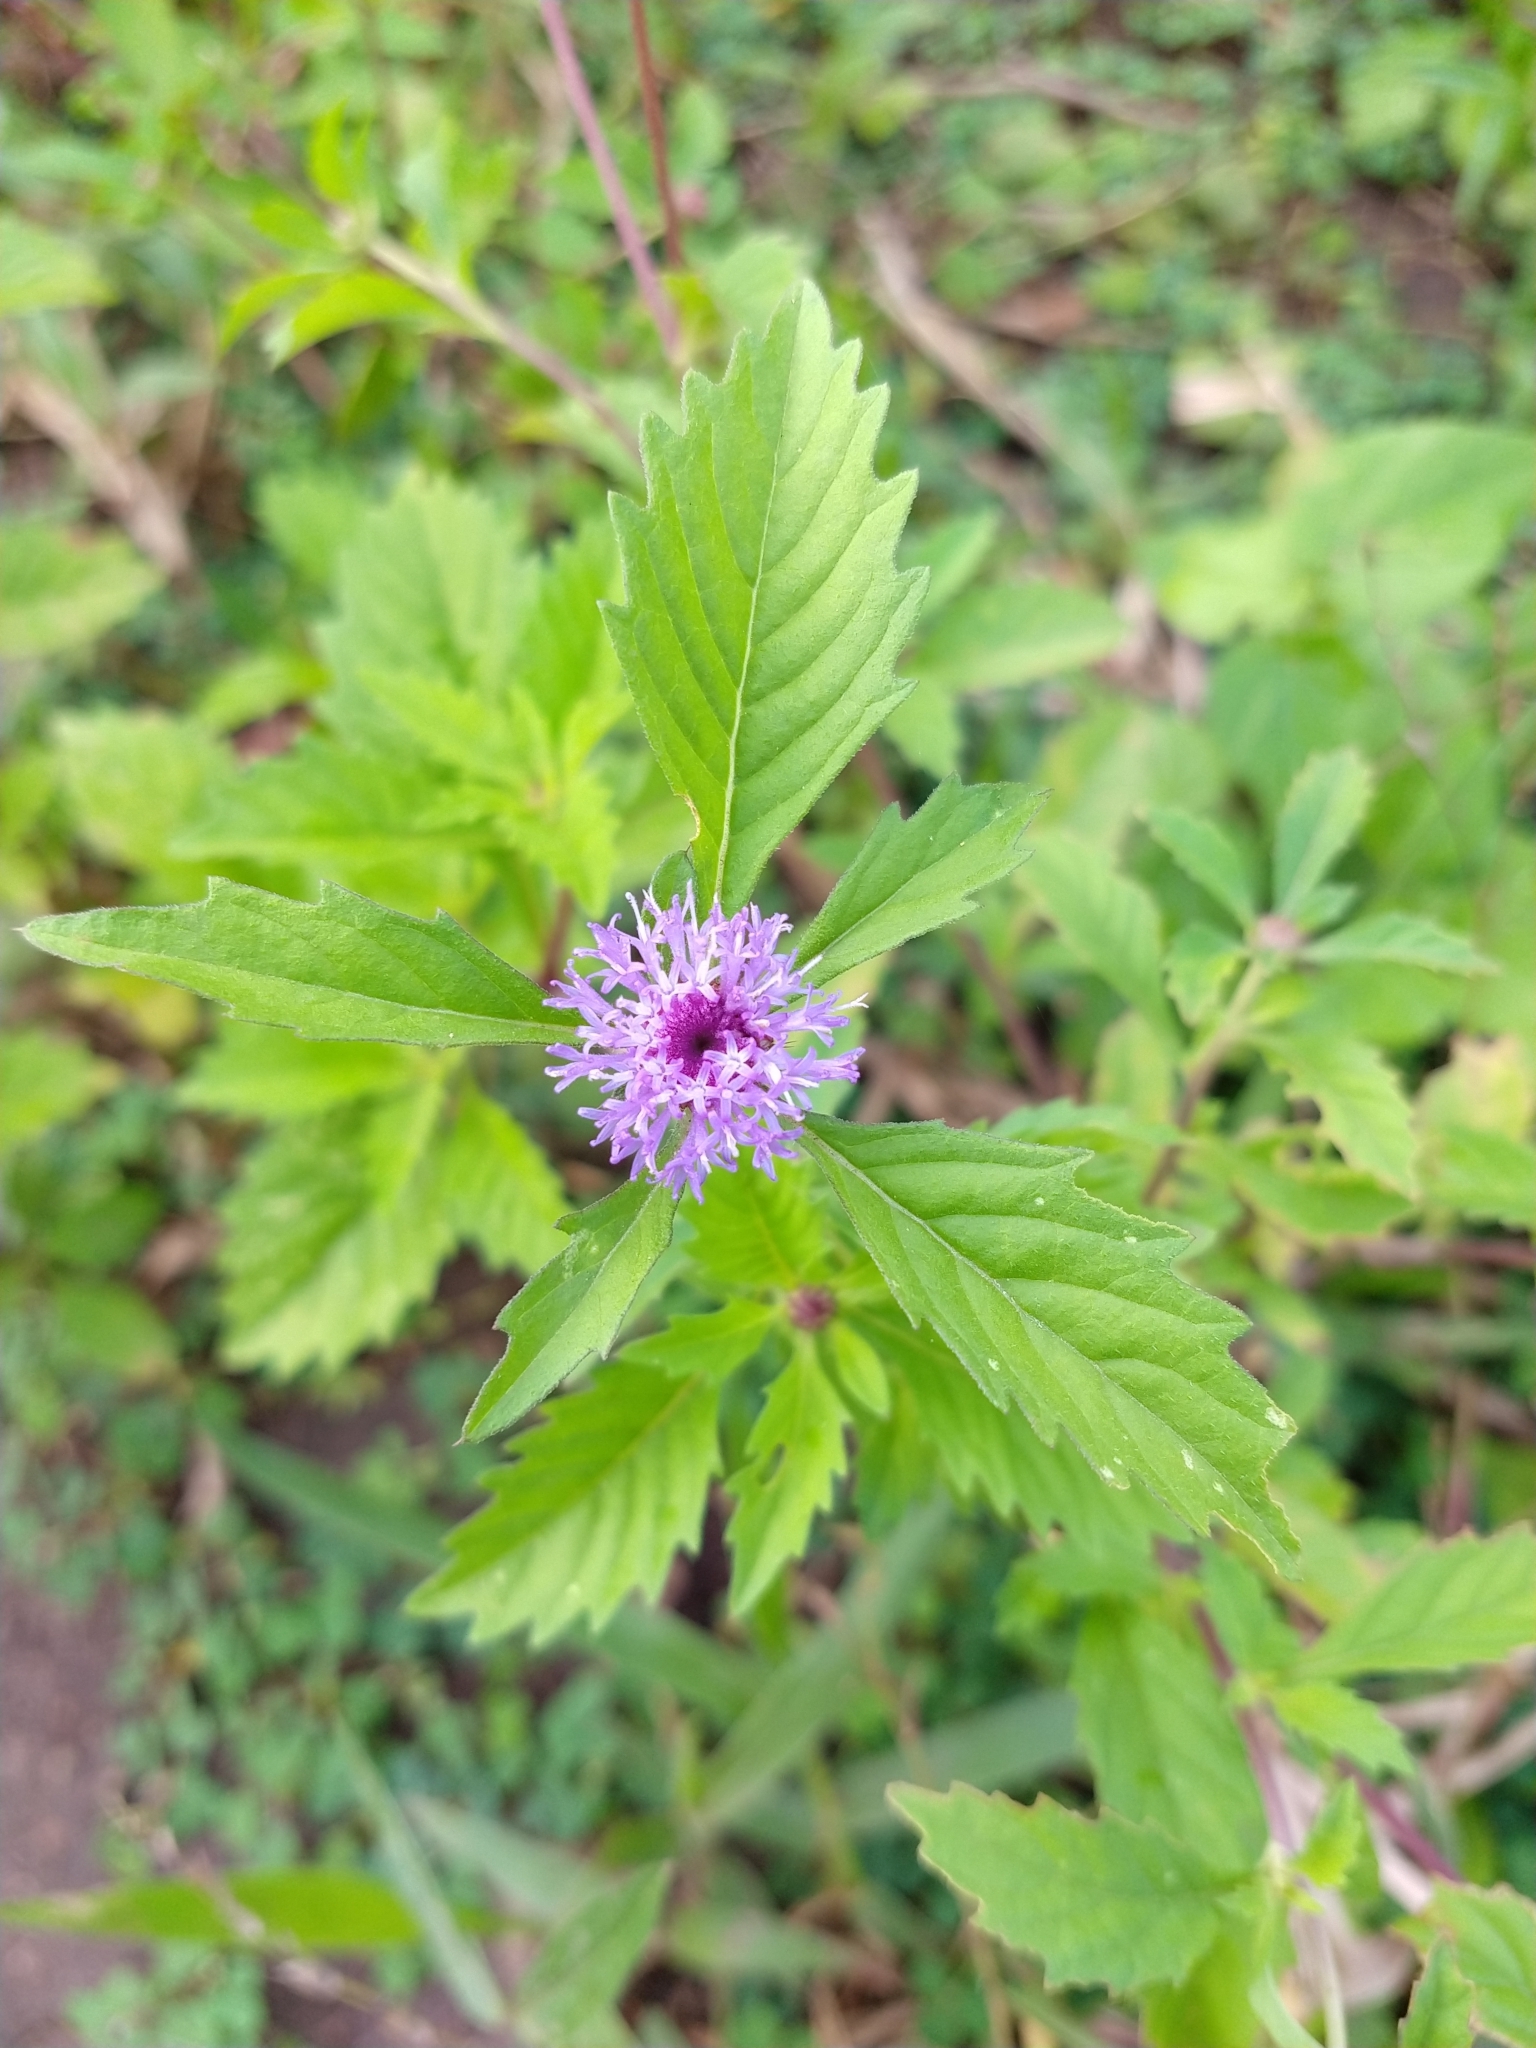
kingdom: Plantae
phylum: Tracheophyta
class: Magnoliopsida
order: Asterales
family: Asteraceae
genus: Centratherum
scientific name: Centratherum punctatum
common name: Larkdaisy
